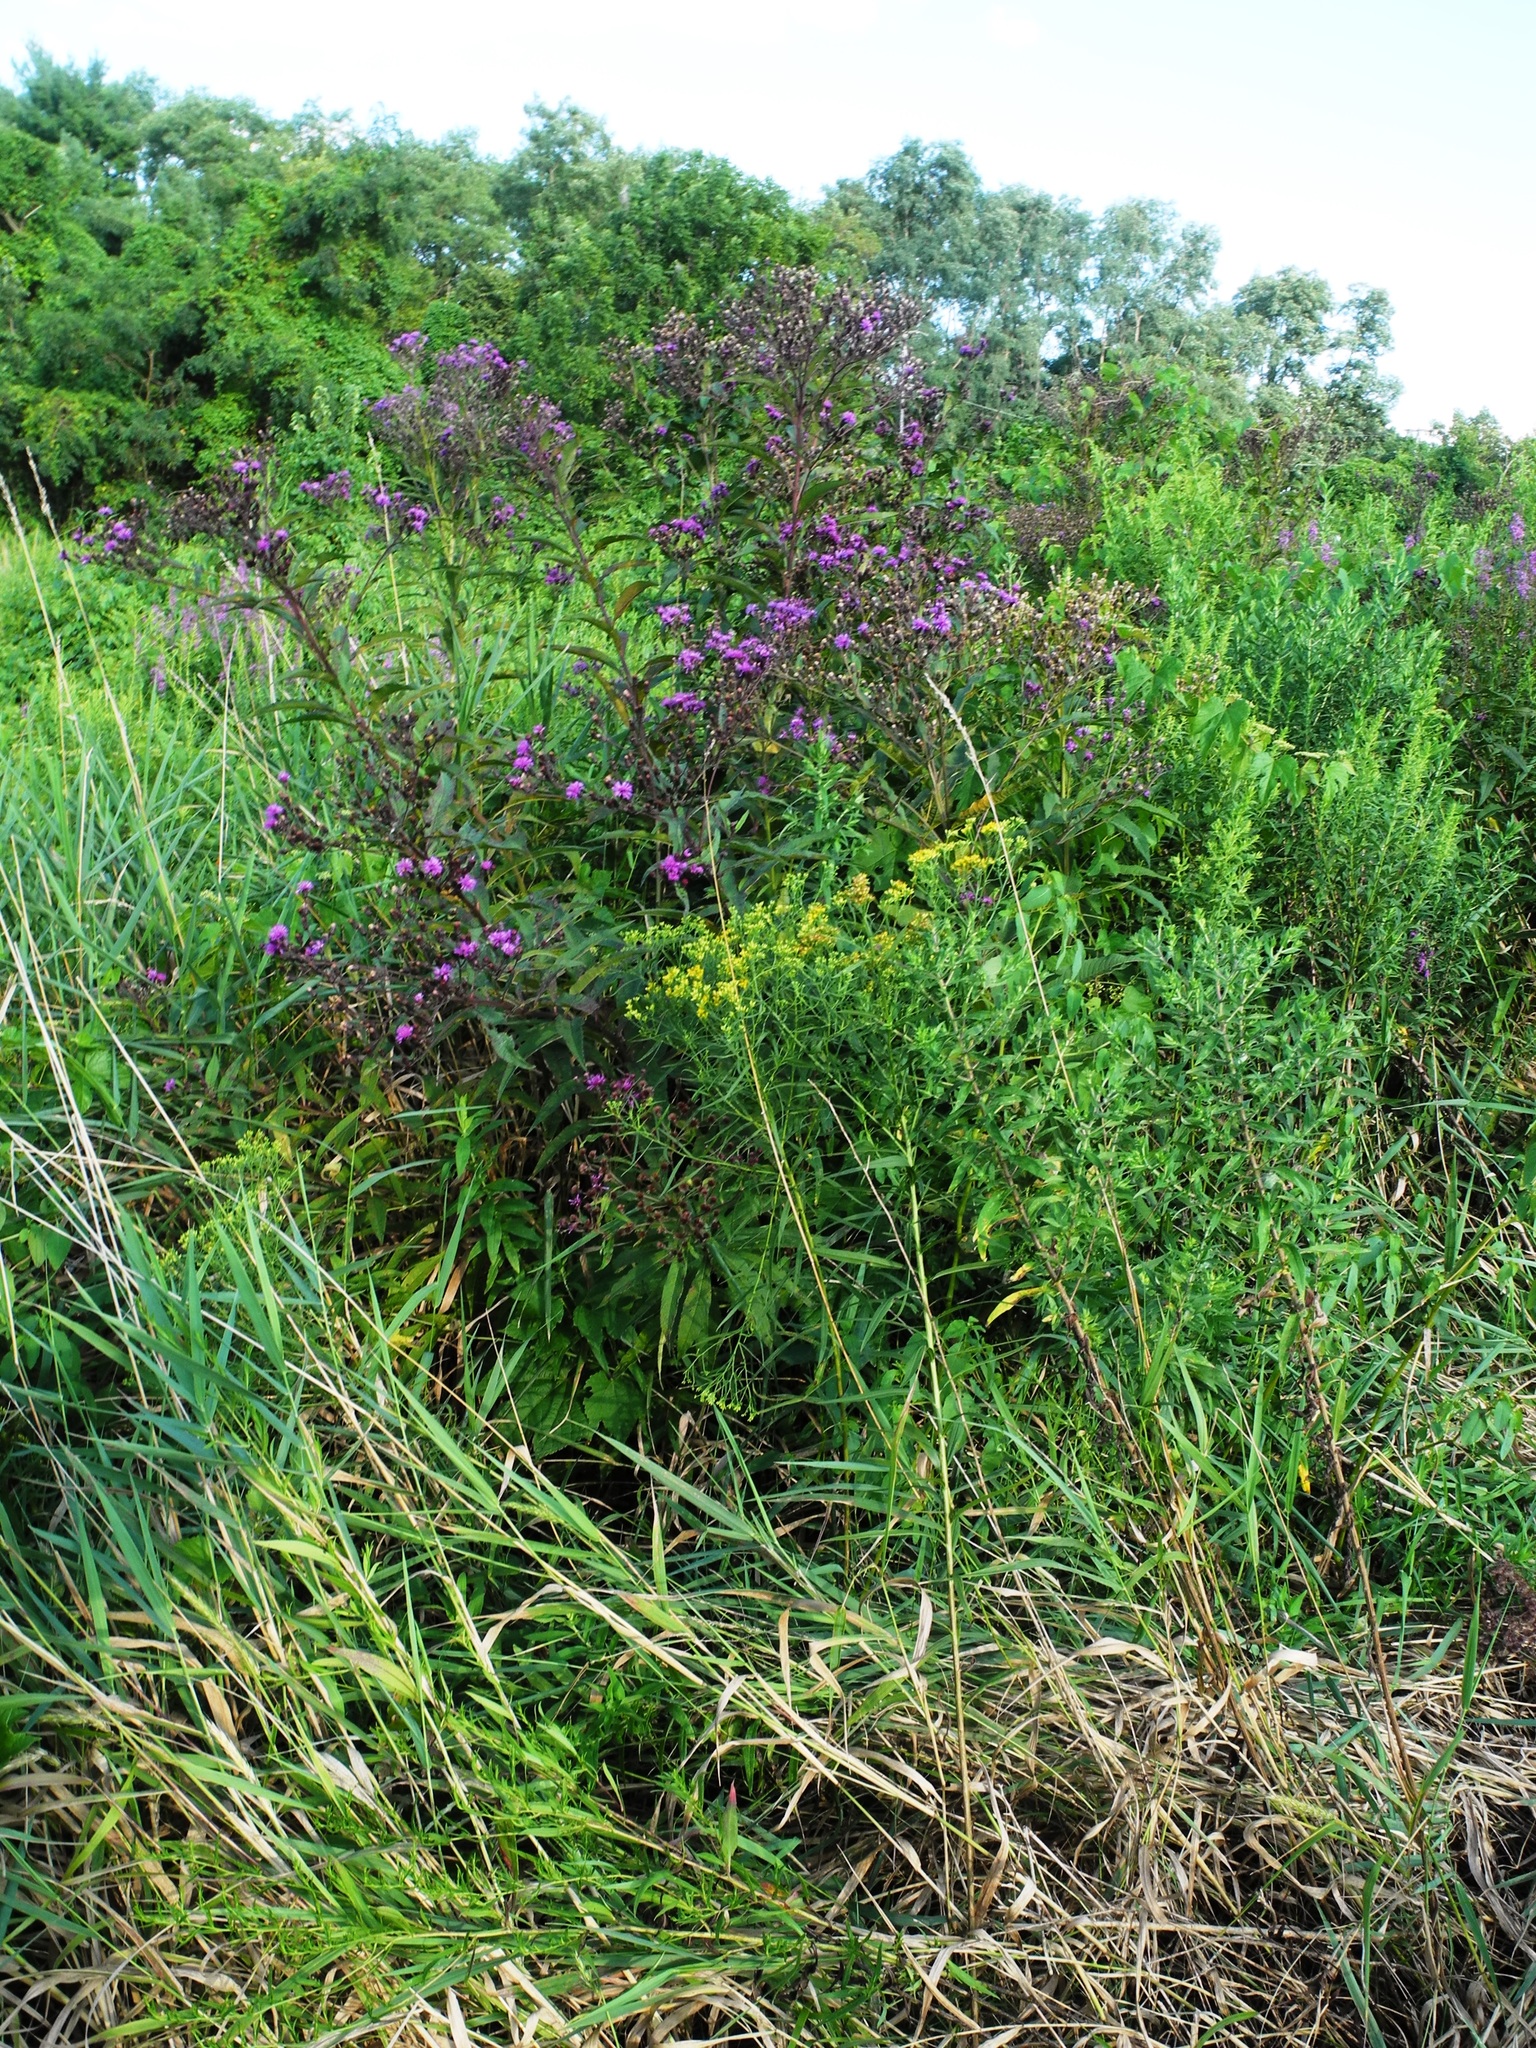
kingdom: Plantae
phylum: Tracheophyta
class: Magnoliopsida
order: Asterales
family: Asteraceae
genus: Vernonia
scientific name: Vernonia noveboracensis
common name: New york ironweed
